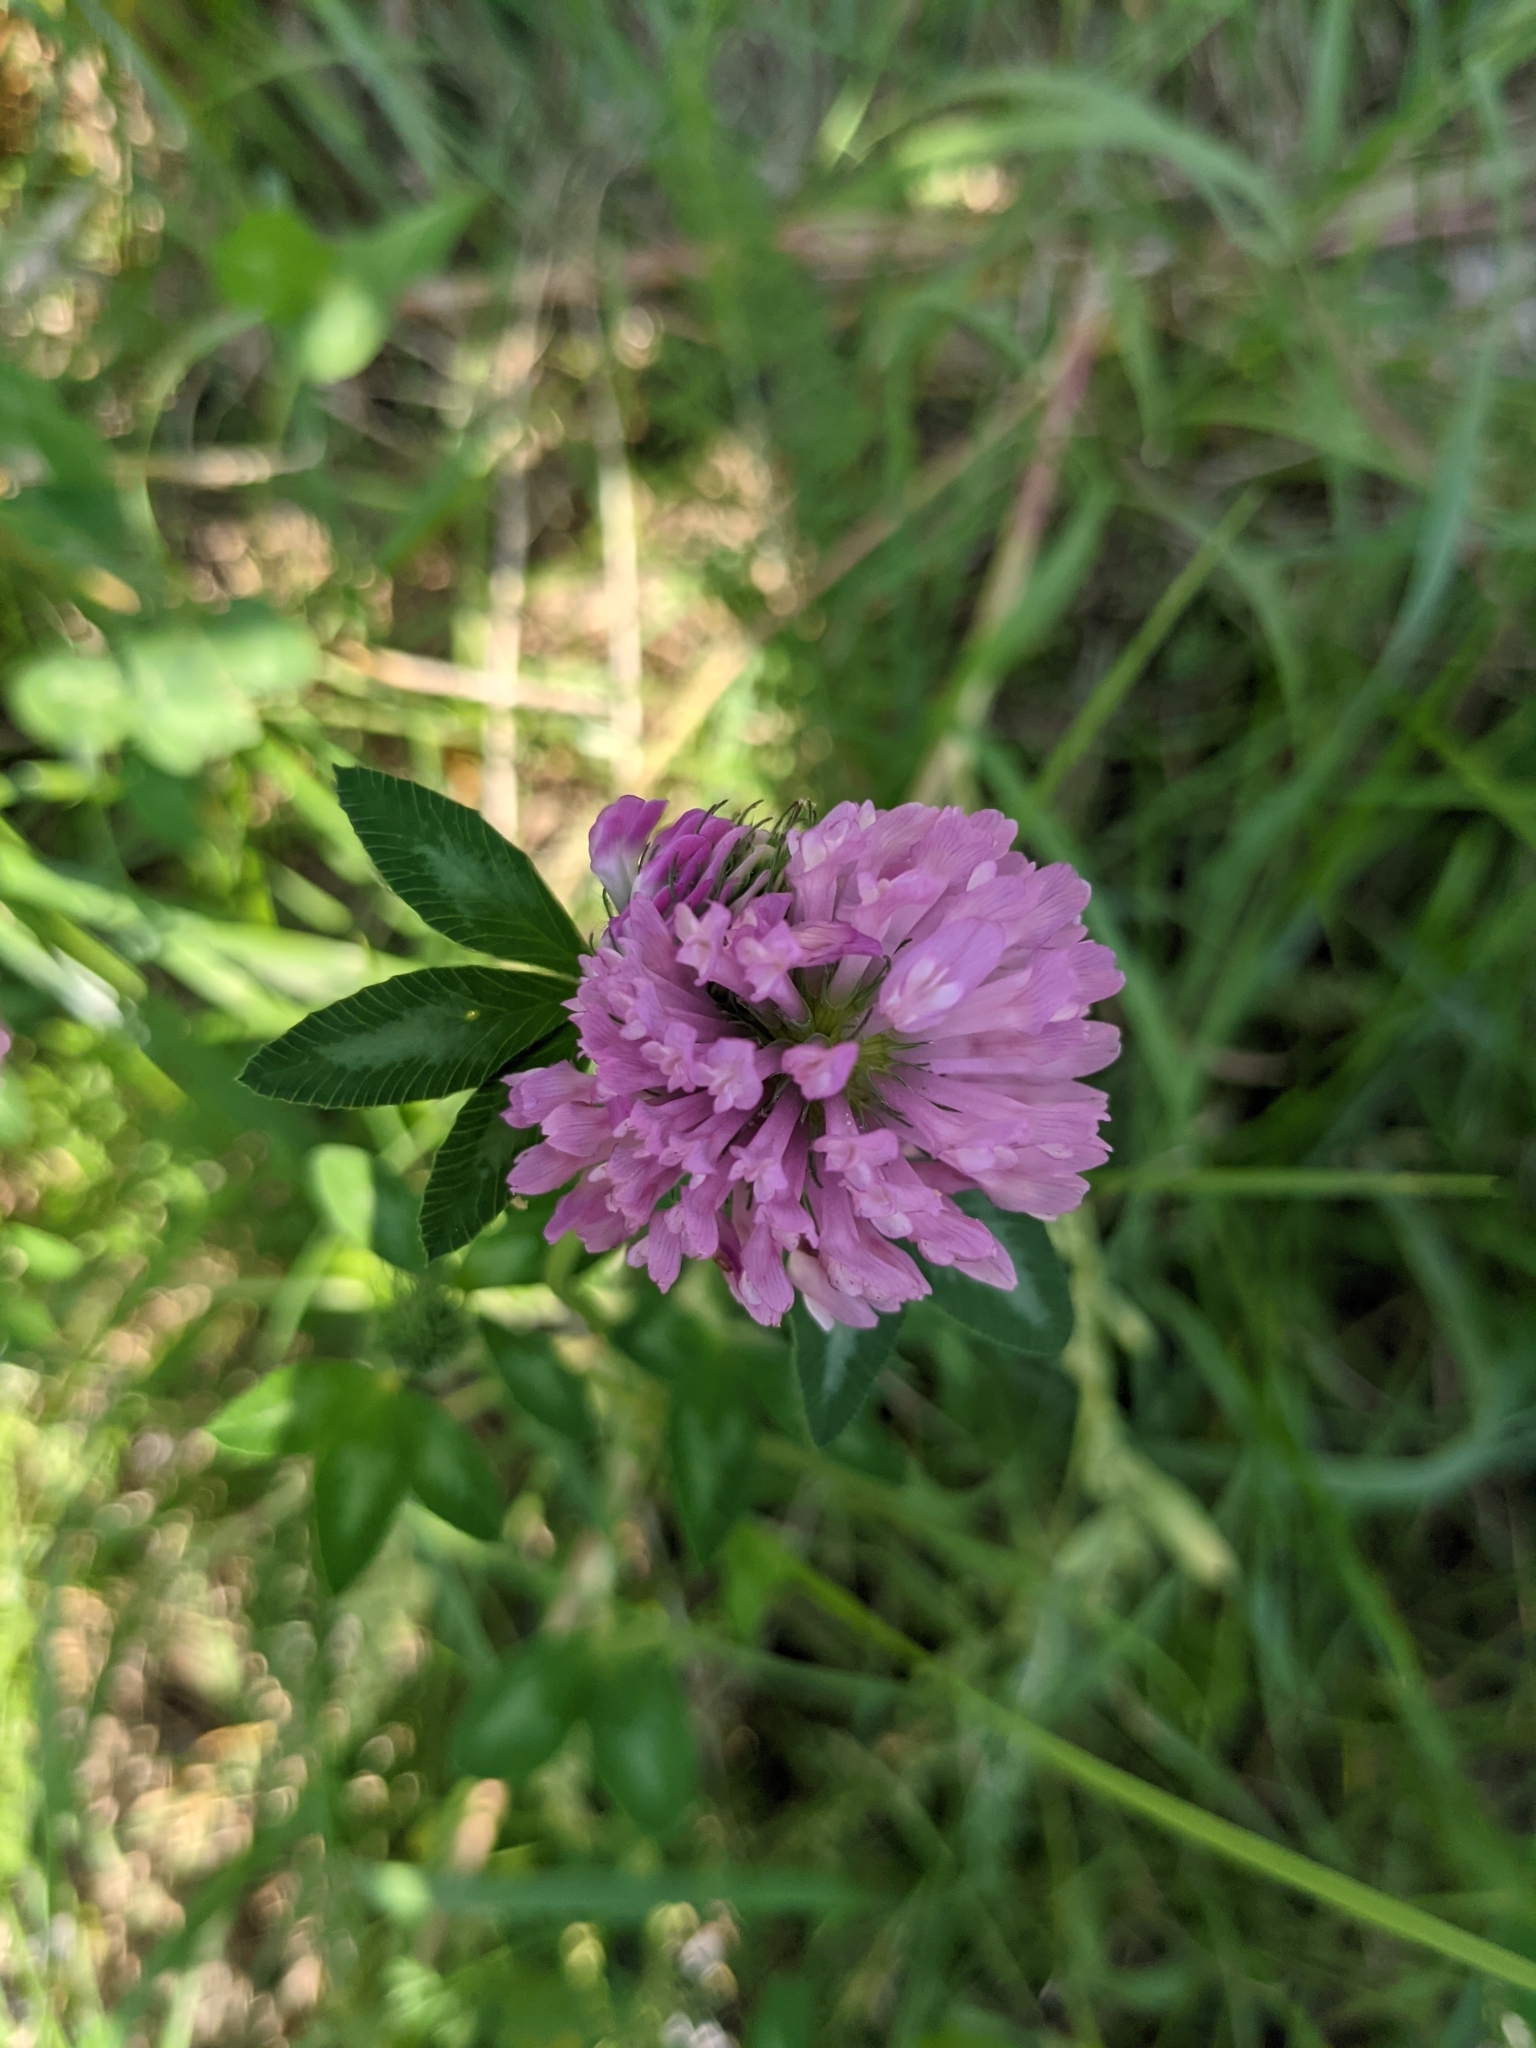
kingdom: Plantae
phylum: Tracheophyta
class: Magnoliopsida
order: Fabales
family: Fabaceae
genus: Trifolium
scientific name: Trifolium pratense
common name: Red clover
